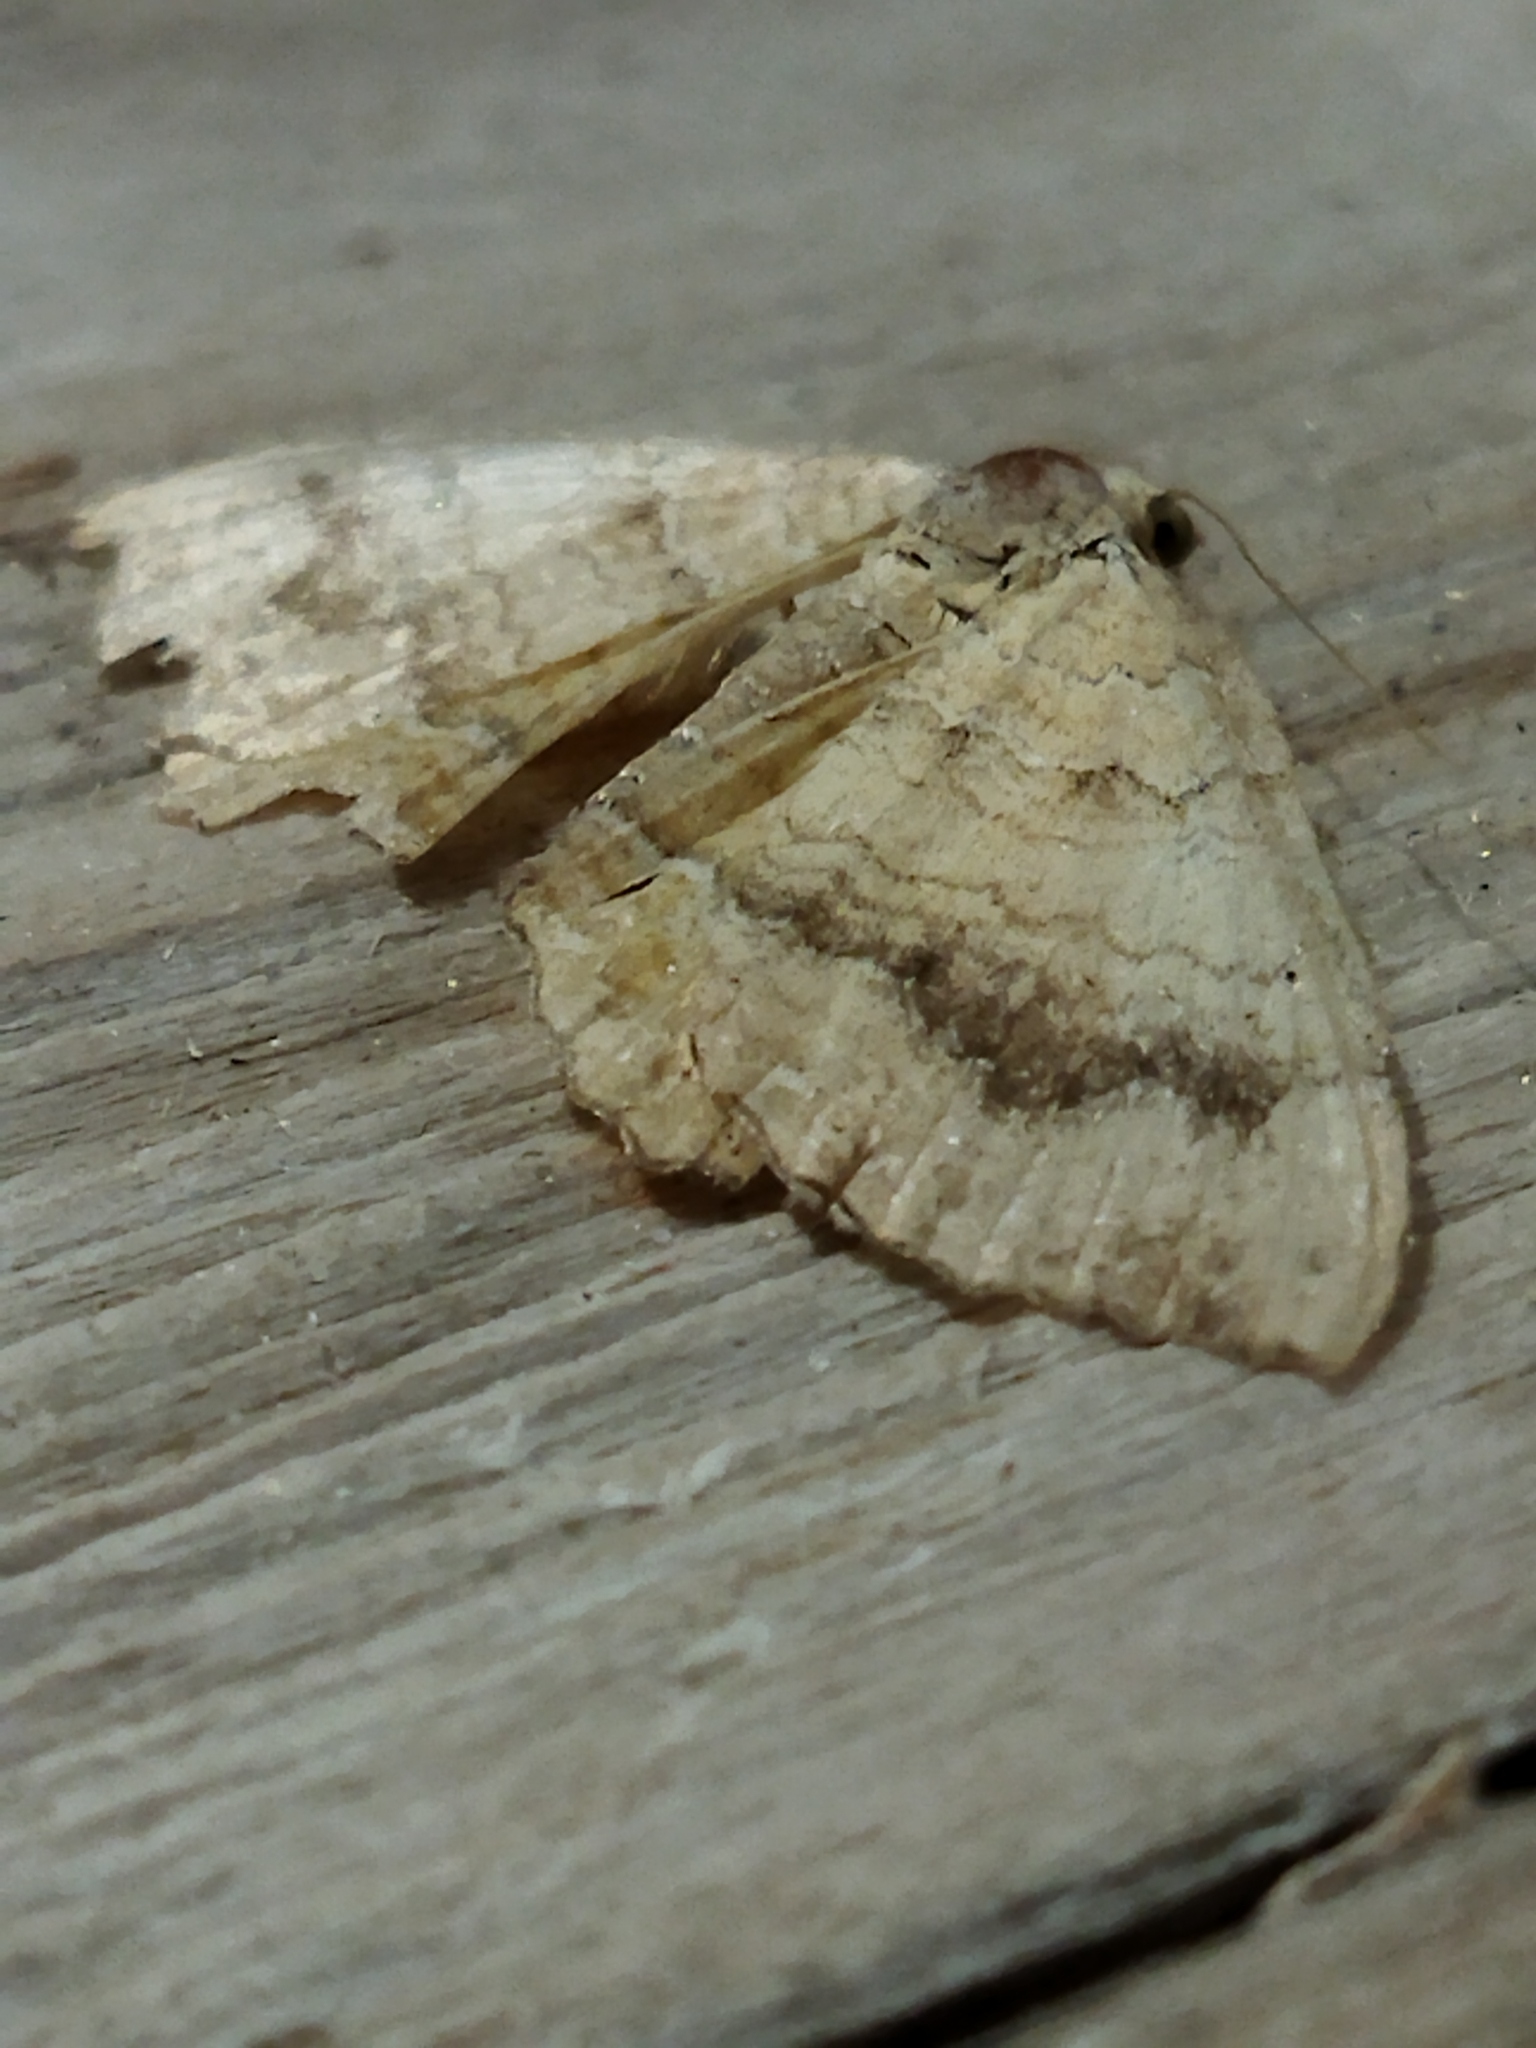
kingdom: Animalia
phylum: Arthropoda
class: Insecta
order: Lepidoptera
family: Geometridae
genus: Camptogramma
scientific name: Camptogramma bilineata
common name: Yellow shell
